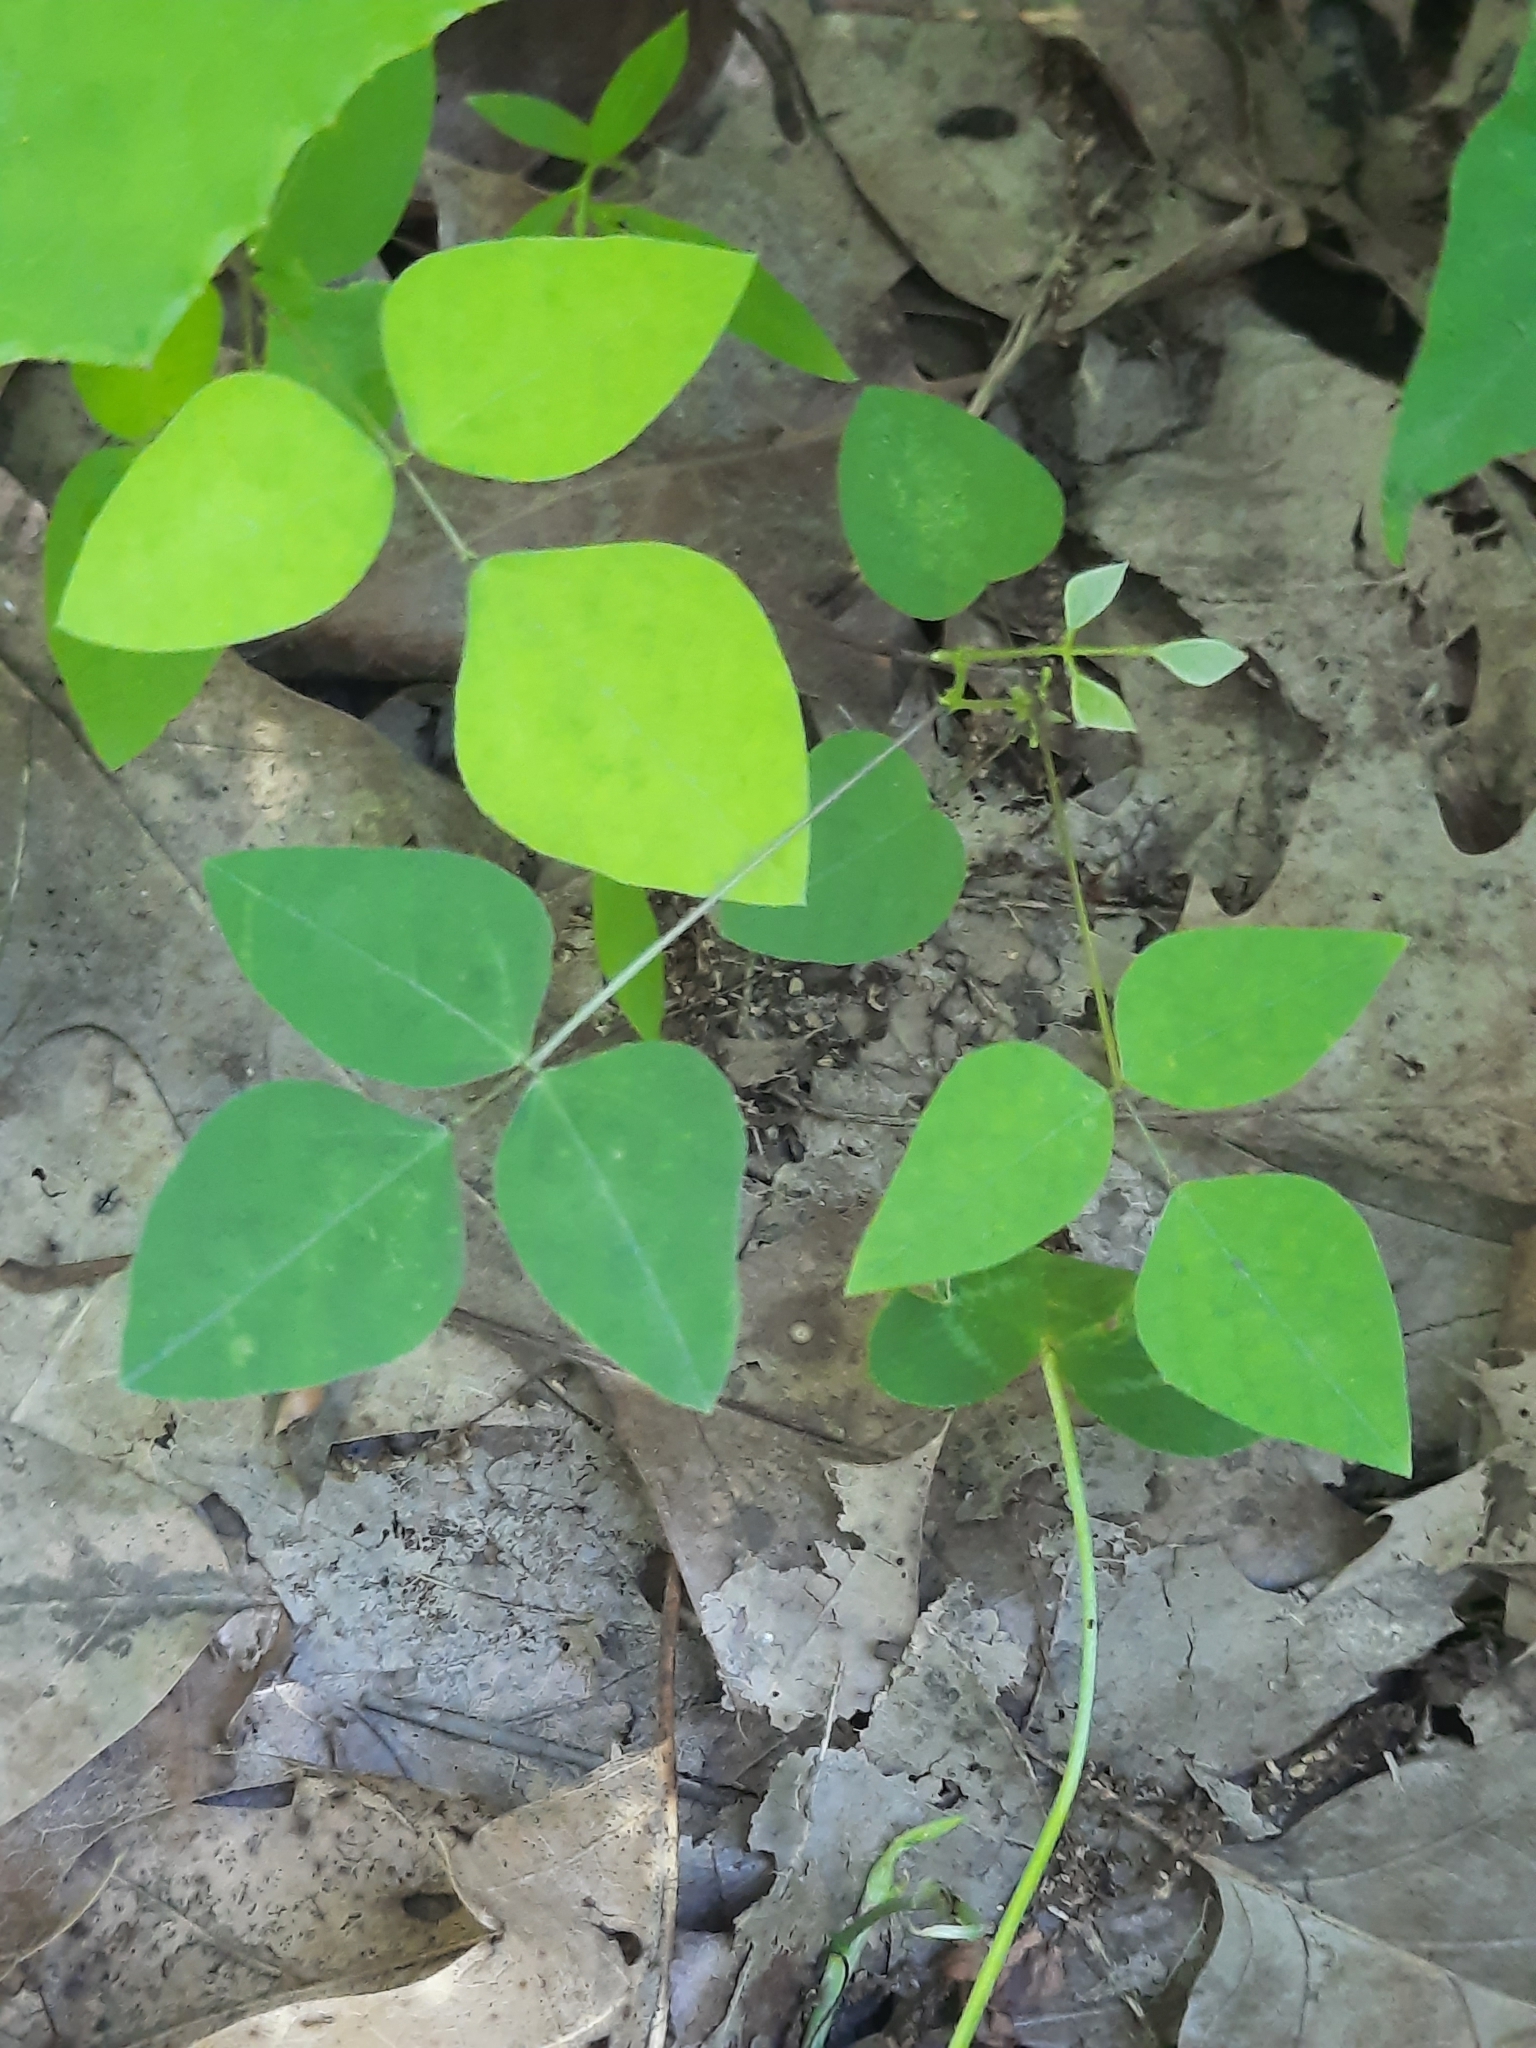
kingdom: Plantae
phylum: Tracheophyta
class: Magnoliopsida
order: Fabales
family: Fabaceae
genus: Amphicarpaea
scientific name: Amphicarpaea bracteata
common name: American hog peanut
